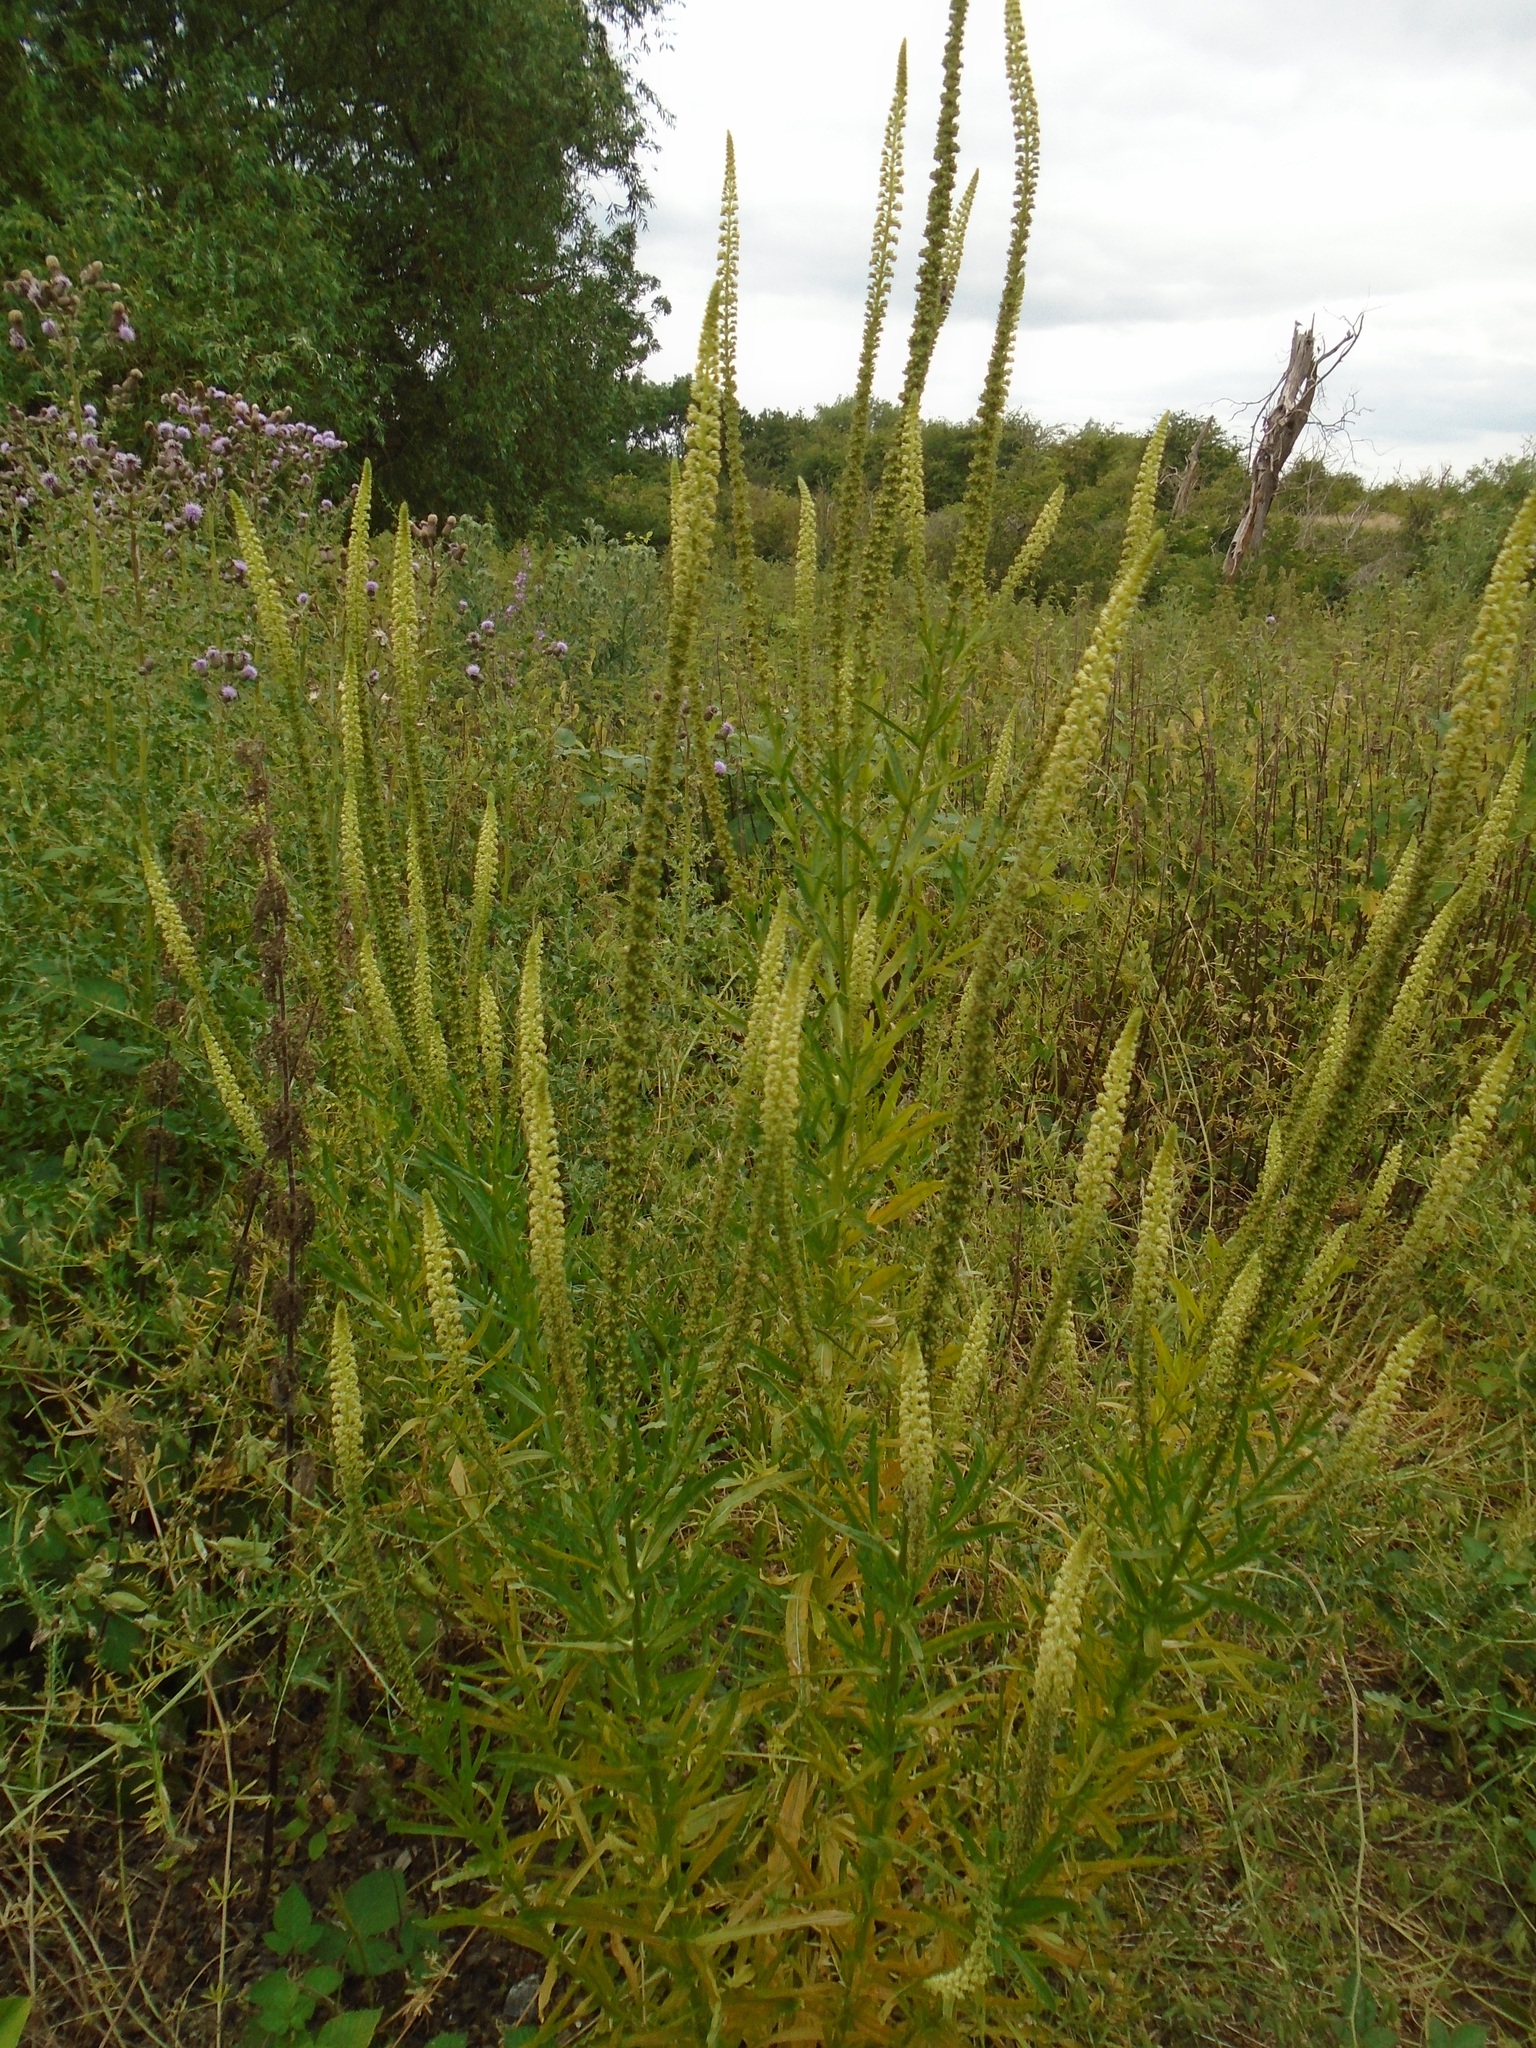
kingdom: Plantae
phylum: Tracheophyta
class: Magnoliopsida
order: Brassicales
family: Resedaceae
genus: Reseda
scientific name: Reseda luteola
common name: Weld
